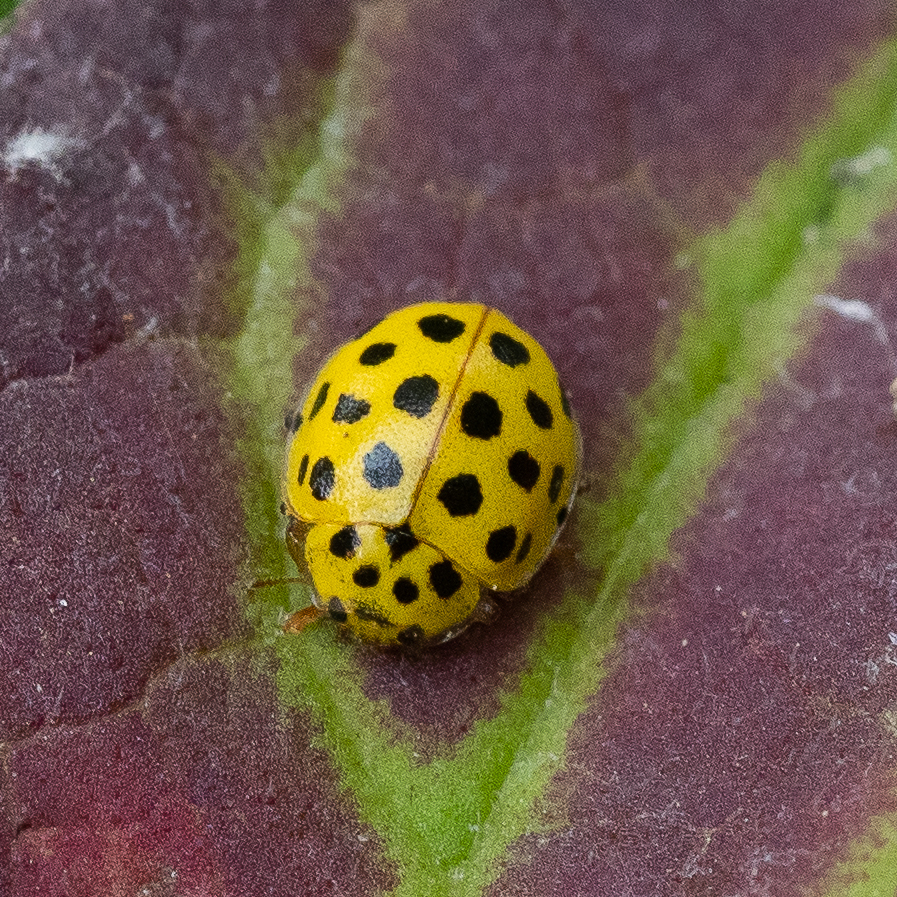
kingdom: Animalia
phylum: Arthropoda
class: Insecta
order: Coleoptera
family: Coccinellidae
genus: Psyllobora
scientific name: Psyllobora vigintiduopunctata
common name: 22-spot ladybird
